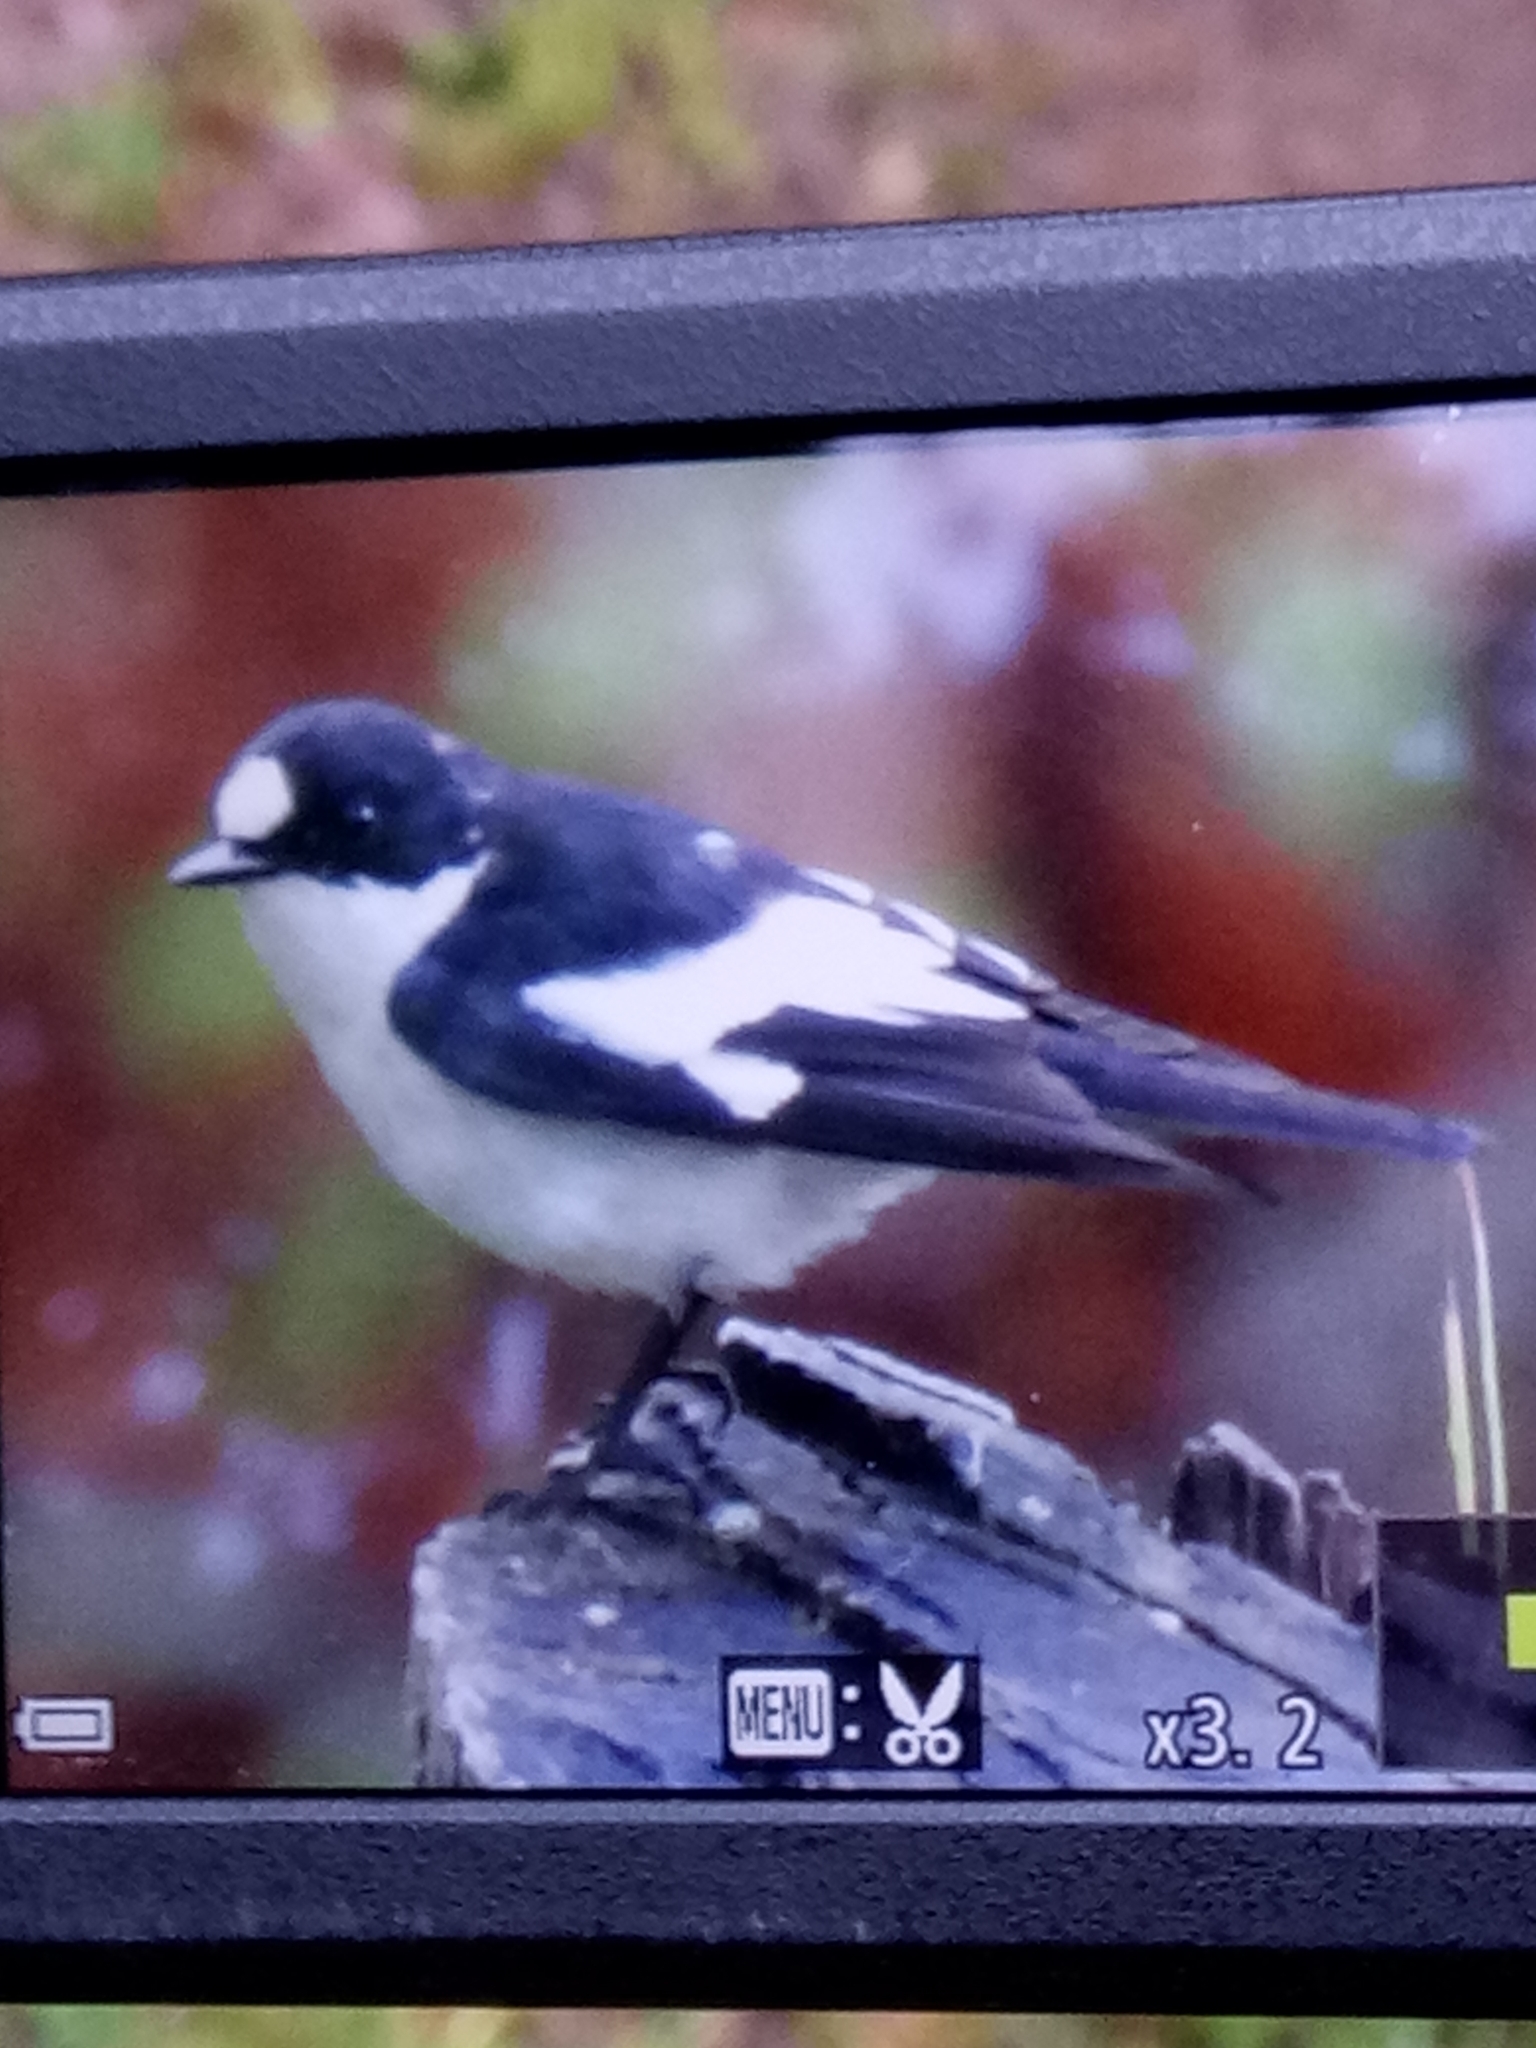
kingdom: Animalia
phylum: Chordata
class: Aves
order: Passeriformes
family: Muscicapidae
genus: Ficedula
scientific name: Ficedula speculigera
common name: Atlas pied flycatcher
